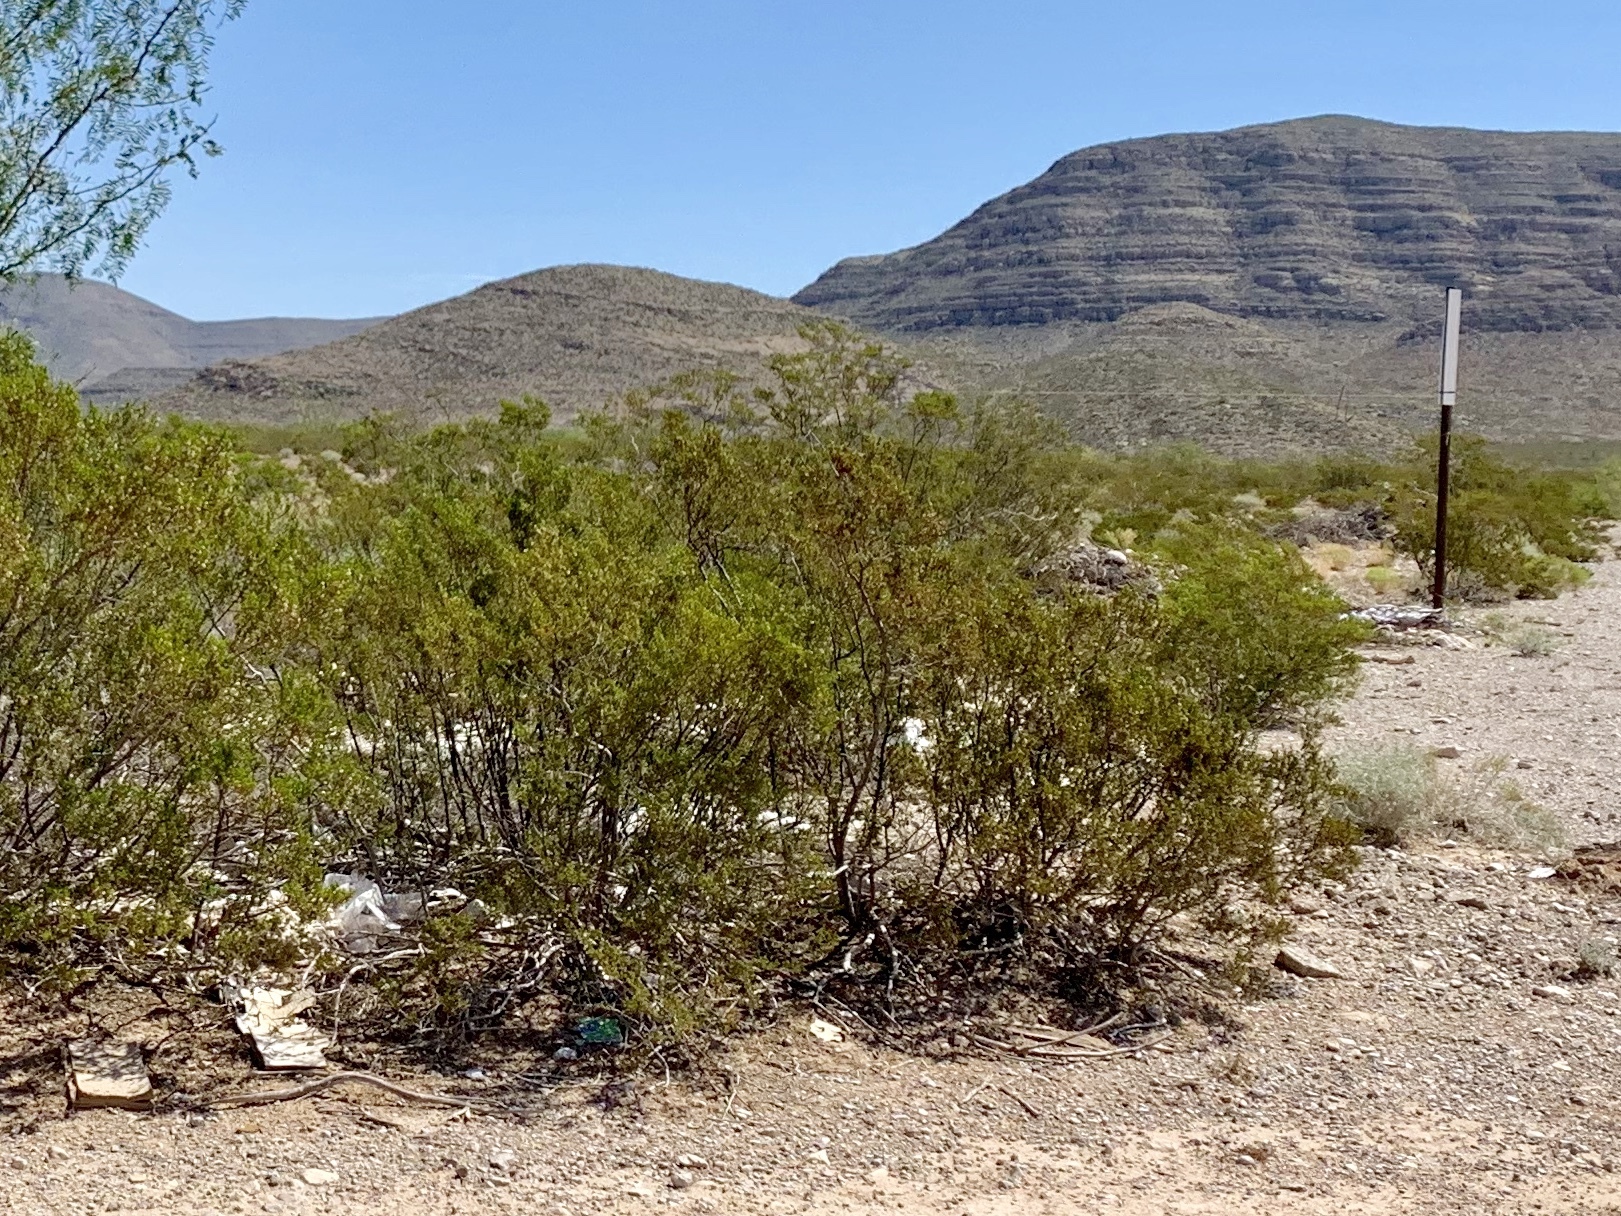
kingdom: Plantae
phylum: Tracheophyta
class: Magnoliopsida
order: Zygophyllales
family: Zygophyllaceae
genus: Larrea
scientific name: Larrea tridentata
